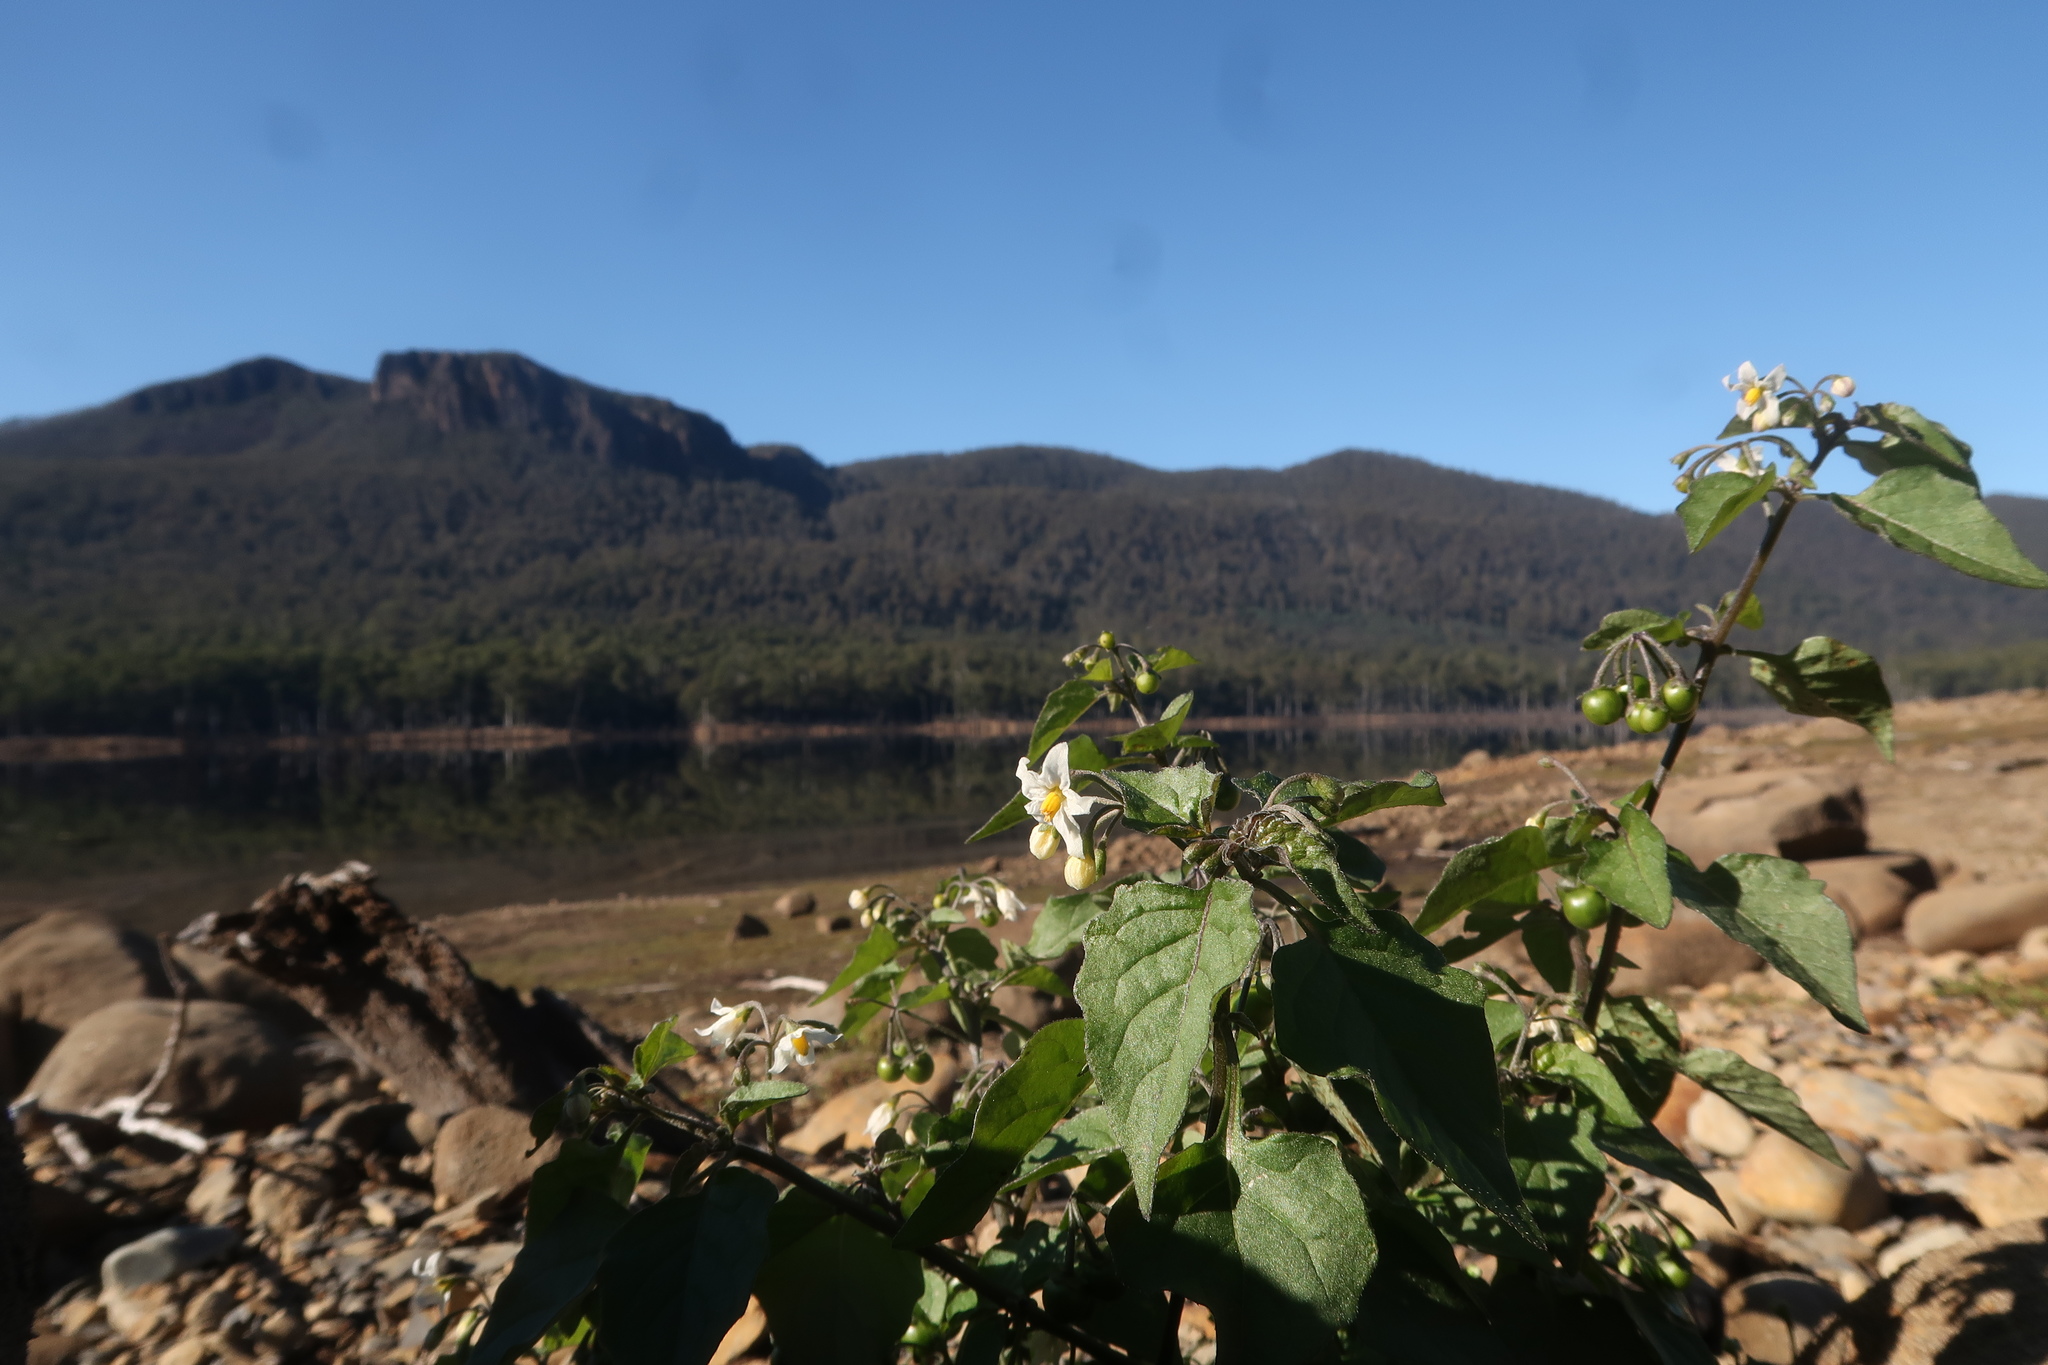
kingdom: Plantae
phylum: Tracheophyta
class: Magnoliopsida
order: Solanales
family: Solanaceae
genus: Solanum
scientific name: Solanum nigrum
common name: Black nightshade
